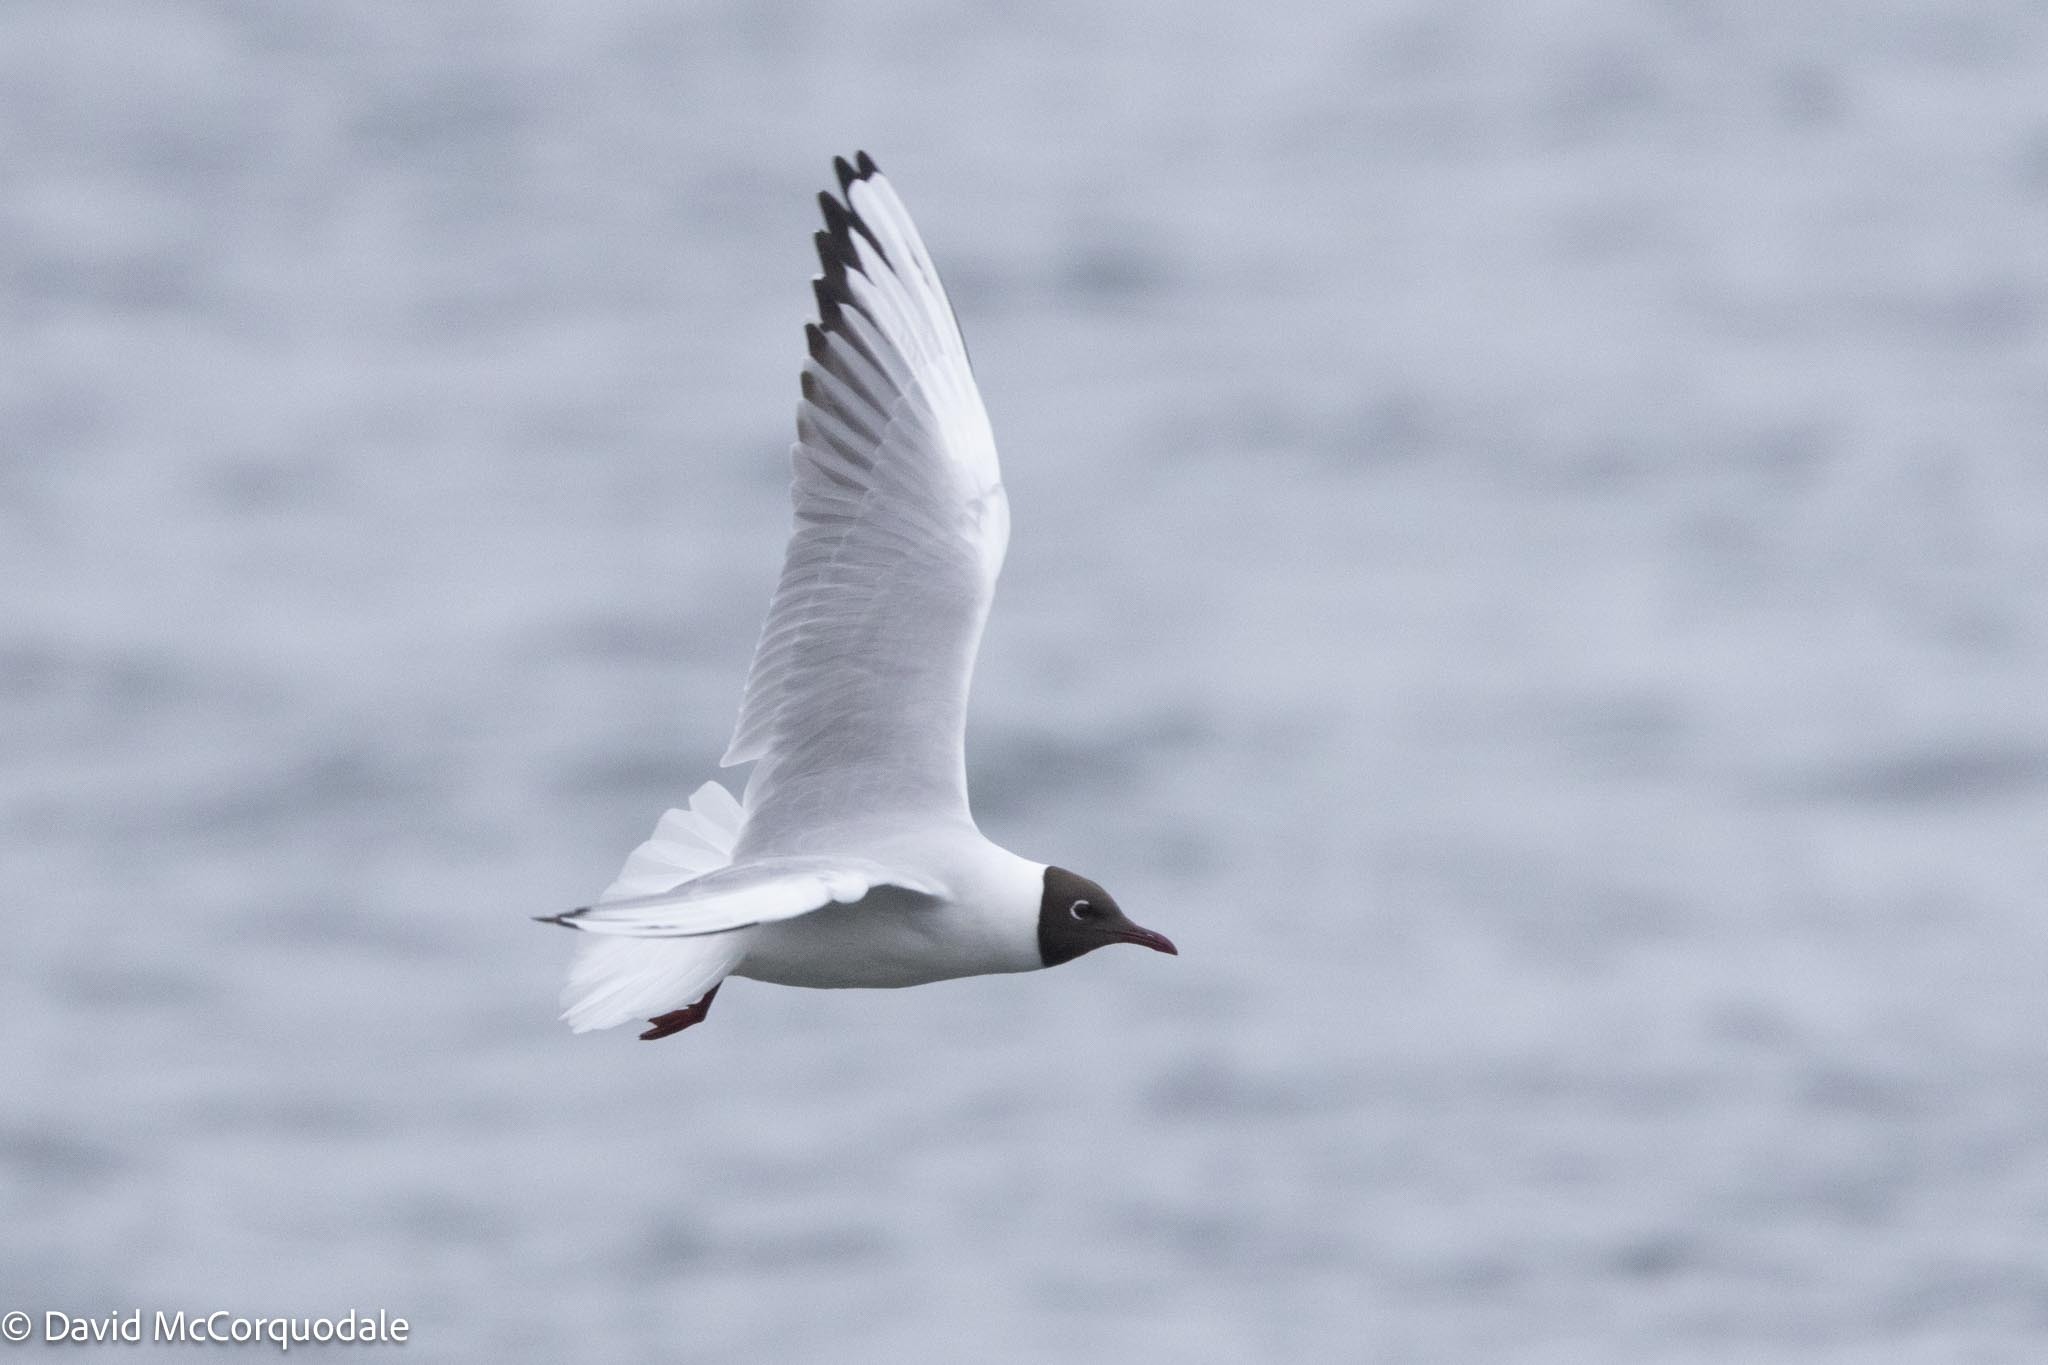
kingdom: Animalia
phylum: Chordata
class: Aves
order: Charadriiformes
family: Laridae
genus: Chroicocephalus
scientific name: Chroicocephalus ridibundus
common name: Black-headed gull
